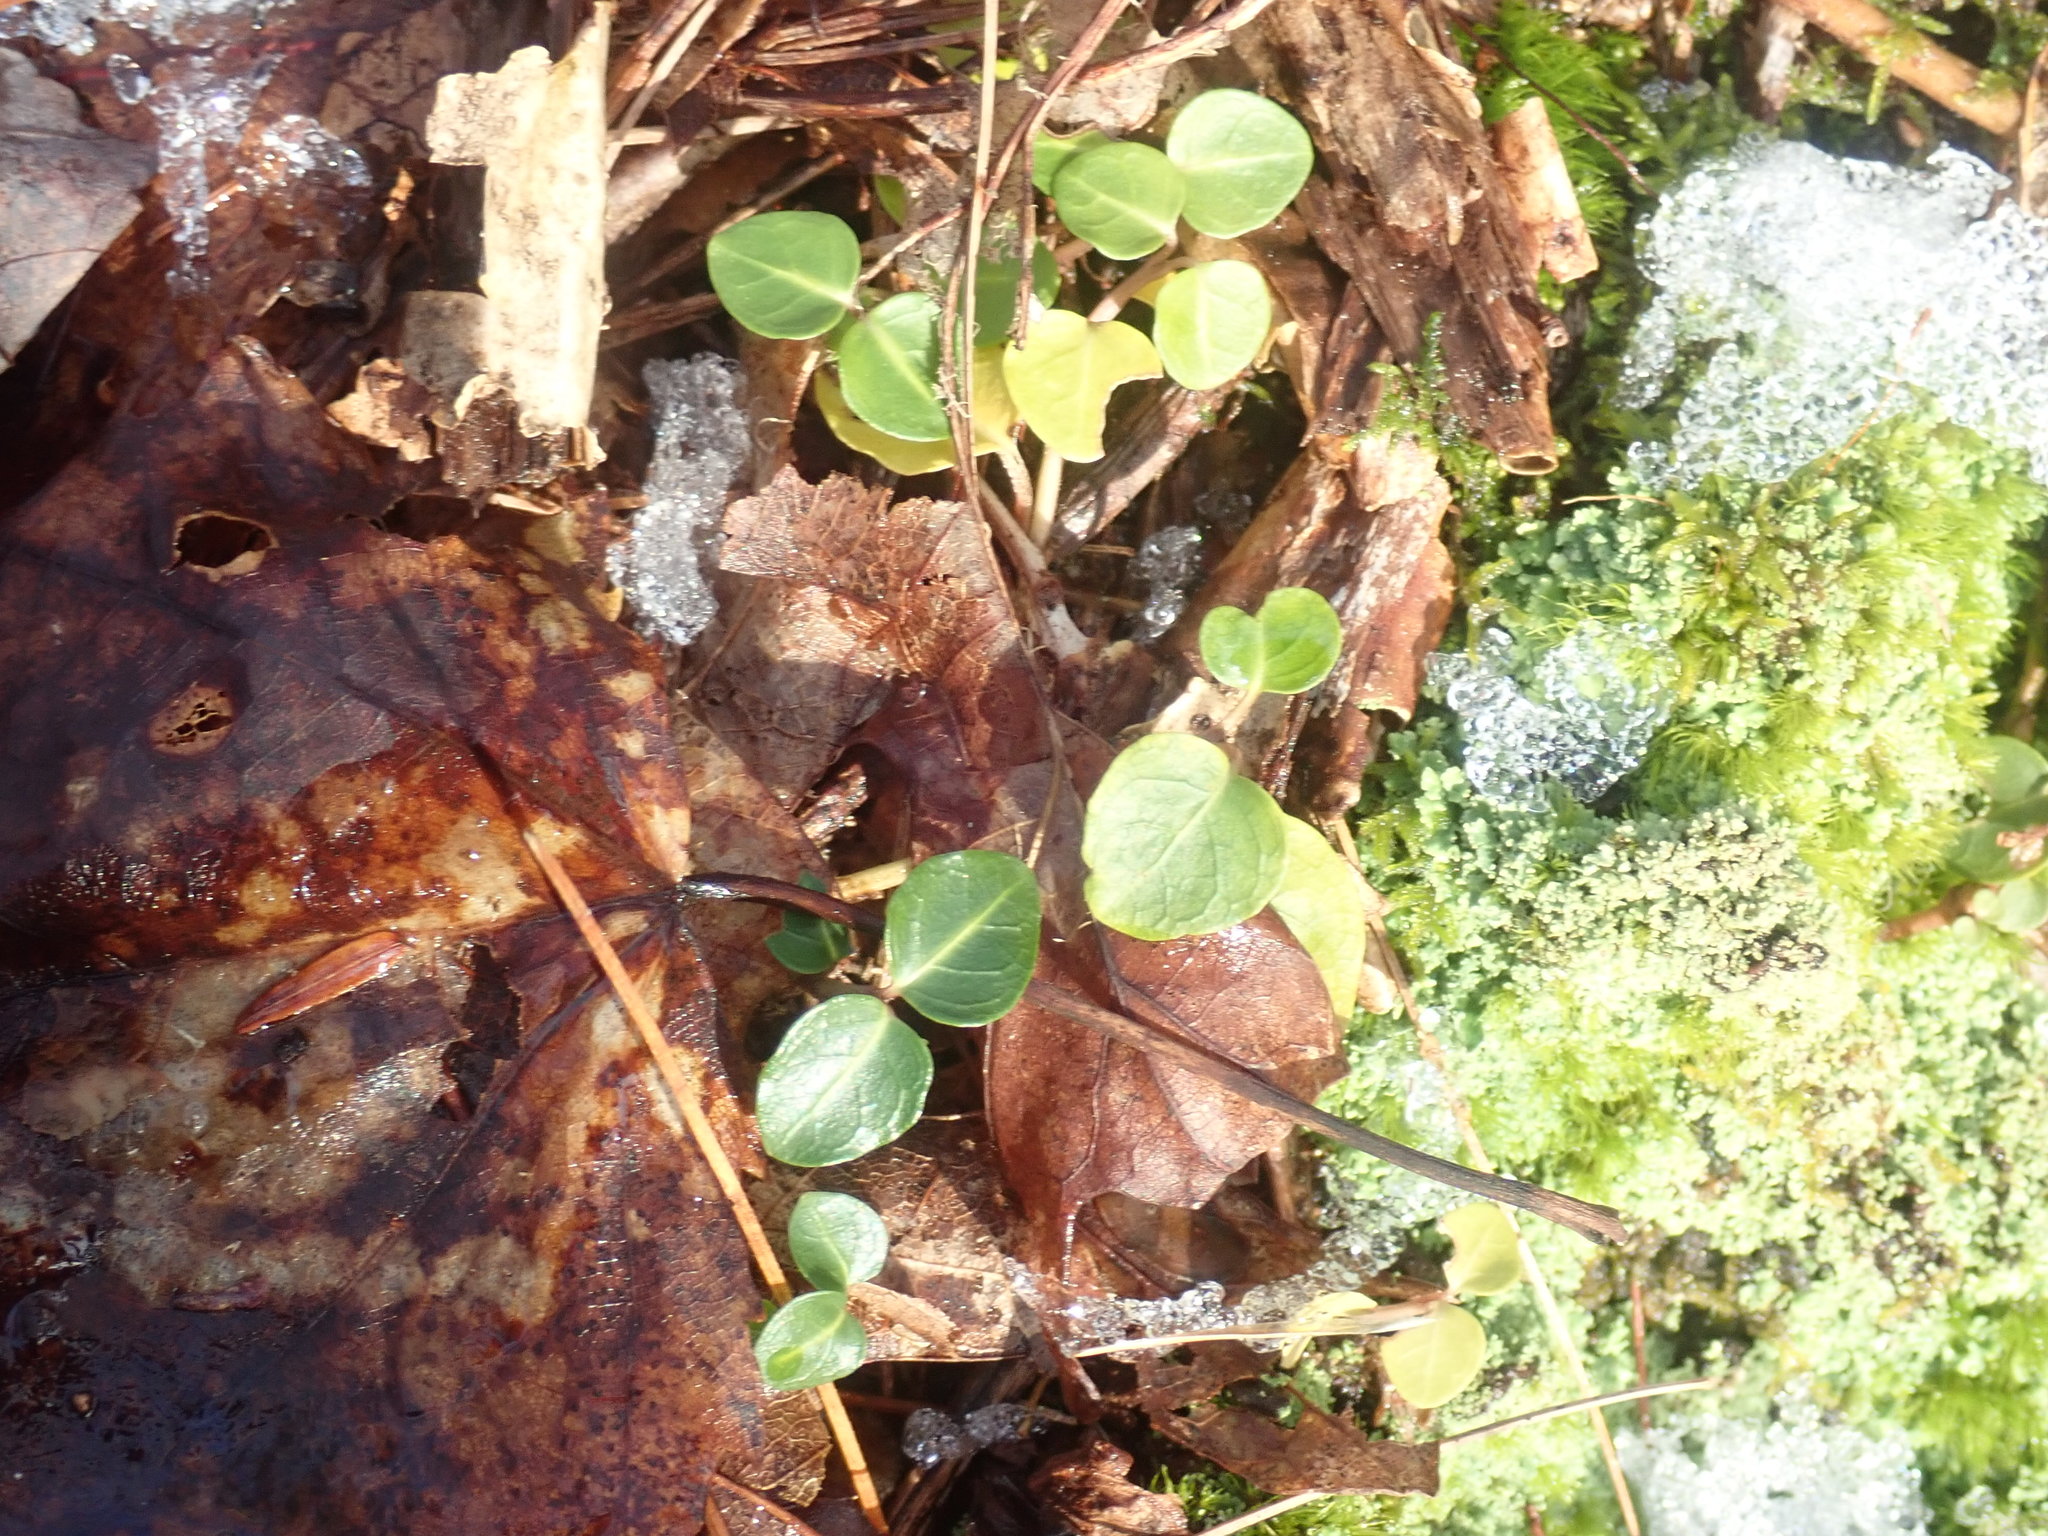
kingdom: Plantae
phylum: Tracheophyta
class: Magnoliopsida
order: Gentianales
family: Rubiaceae
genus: Mitchella
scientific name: Mitchella repens
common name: Partridge-berry
